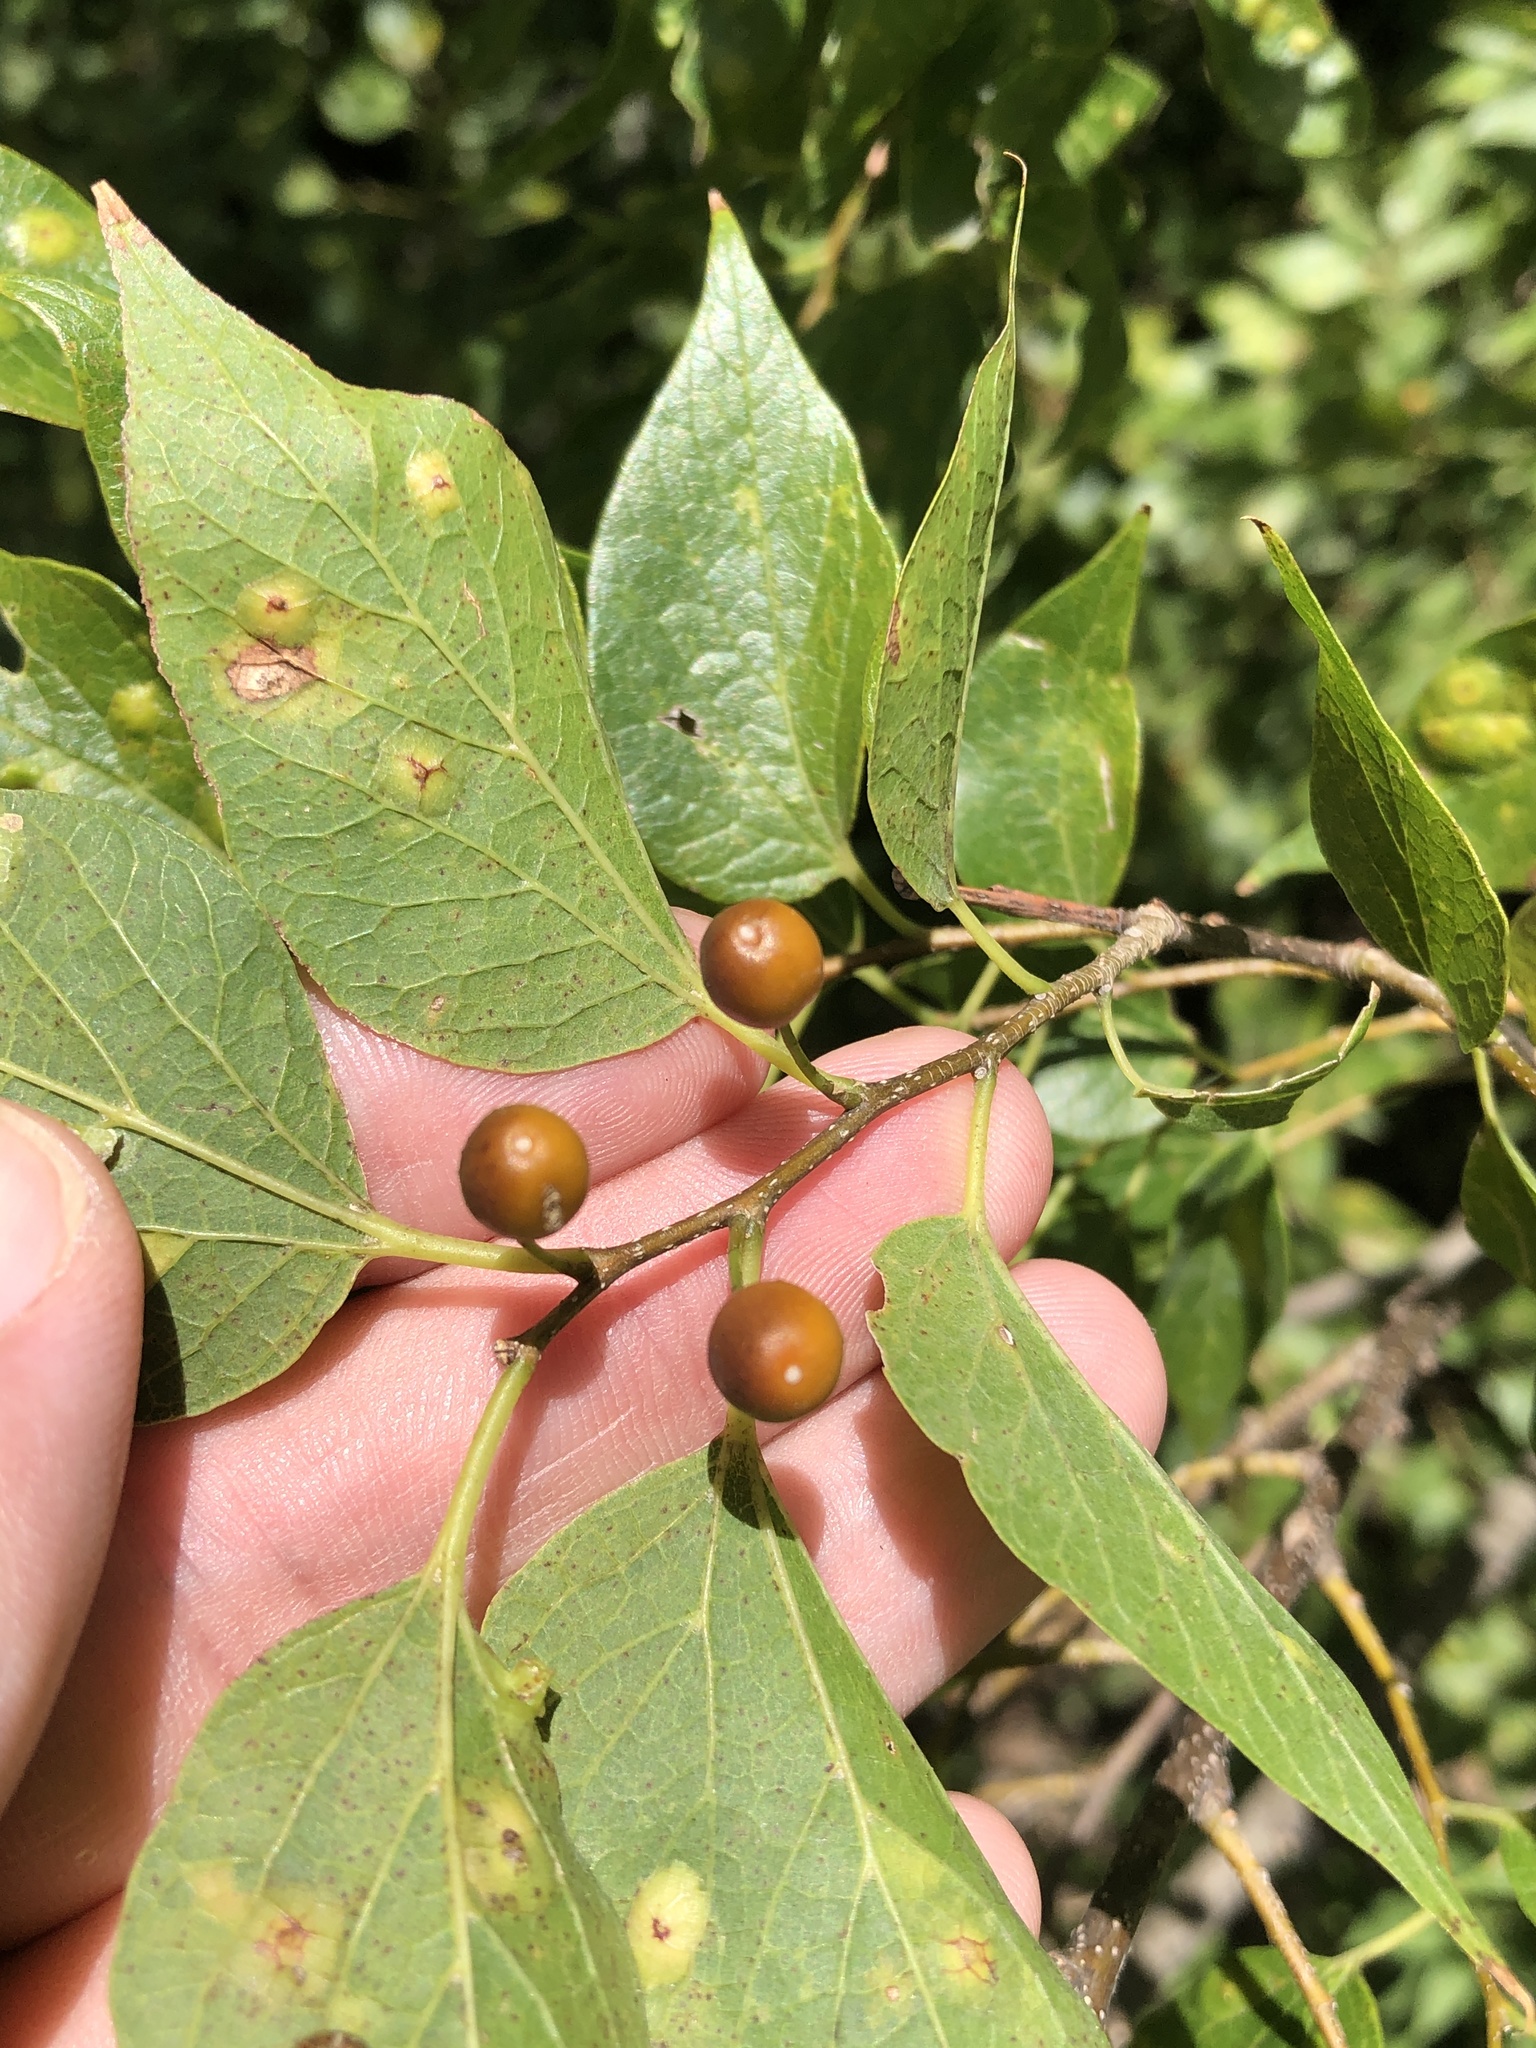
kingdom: Plantae
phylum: Tracheophyta
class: Magnoliopsida
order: Rosales
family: Cannabaceae
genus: Celtis
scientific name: Celtis laevigata
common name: Sugarberry
